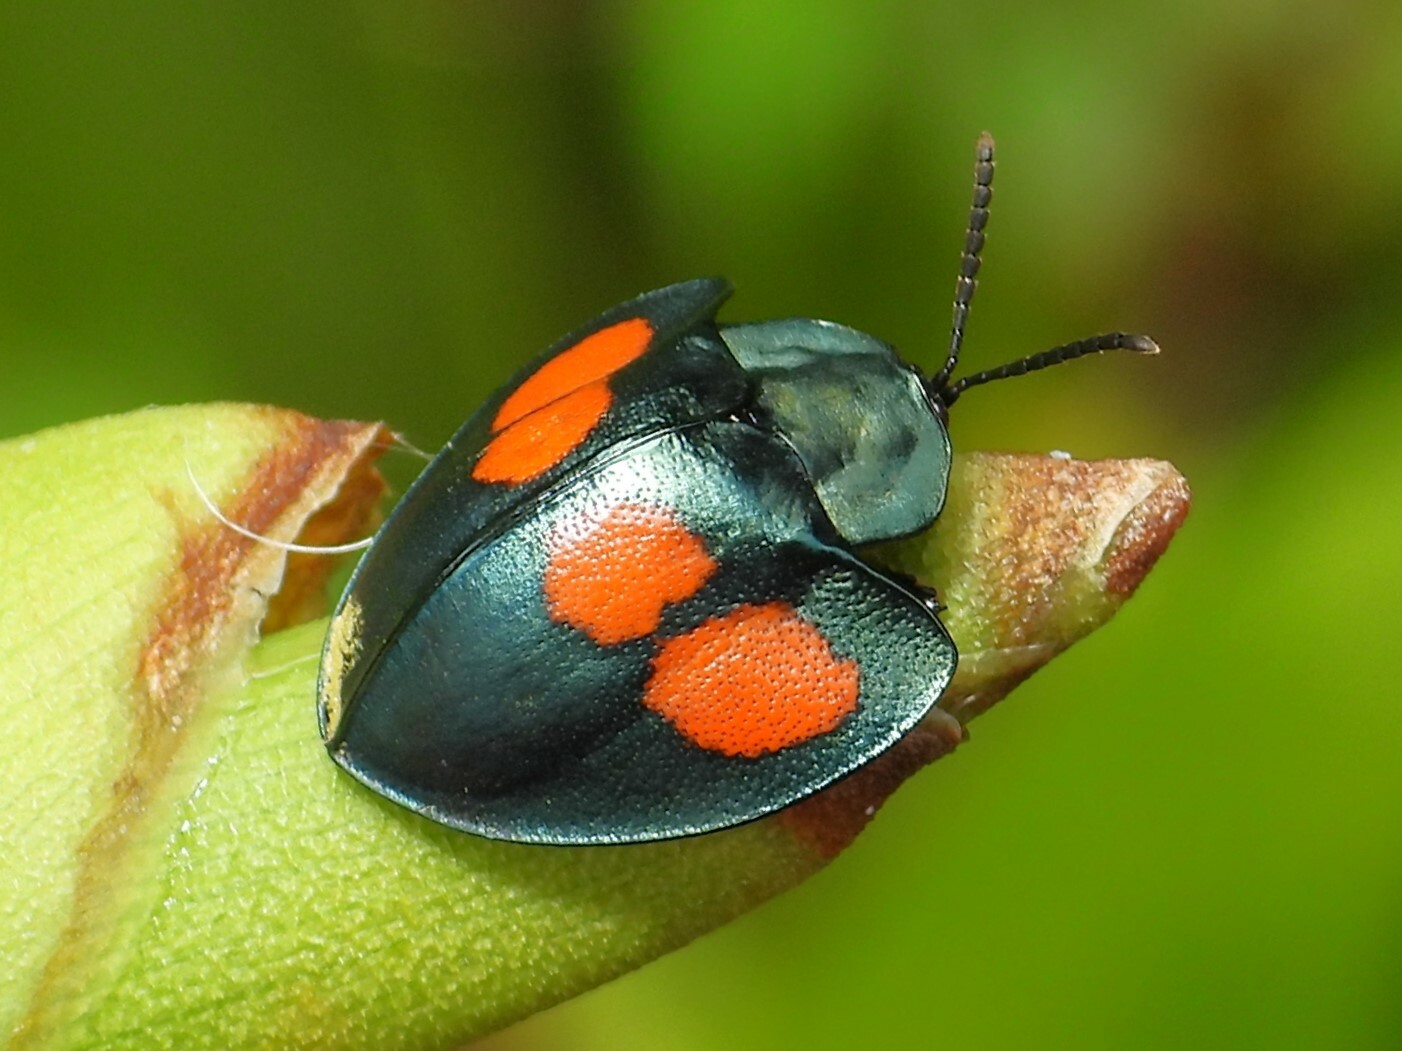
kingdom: Animalia
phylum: Arthropoda
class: Insecta
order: Coleoptera
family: Chrysomelidae
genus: Echoma
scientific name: Echoma quadristillata
